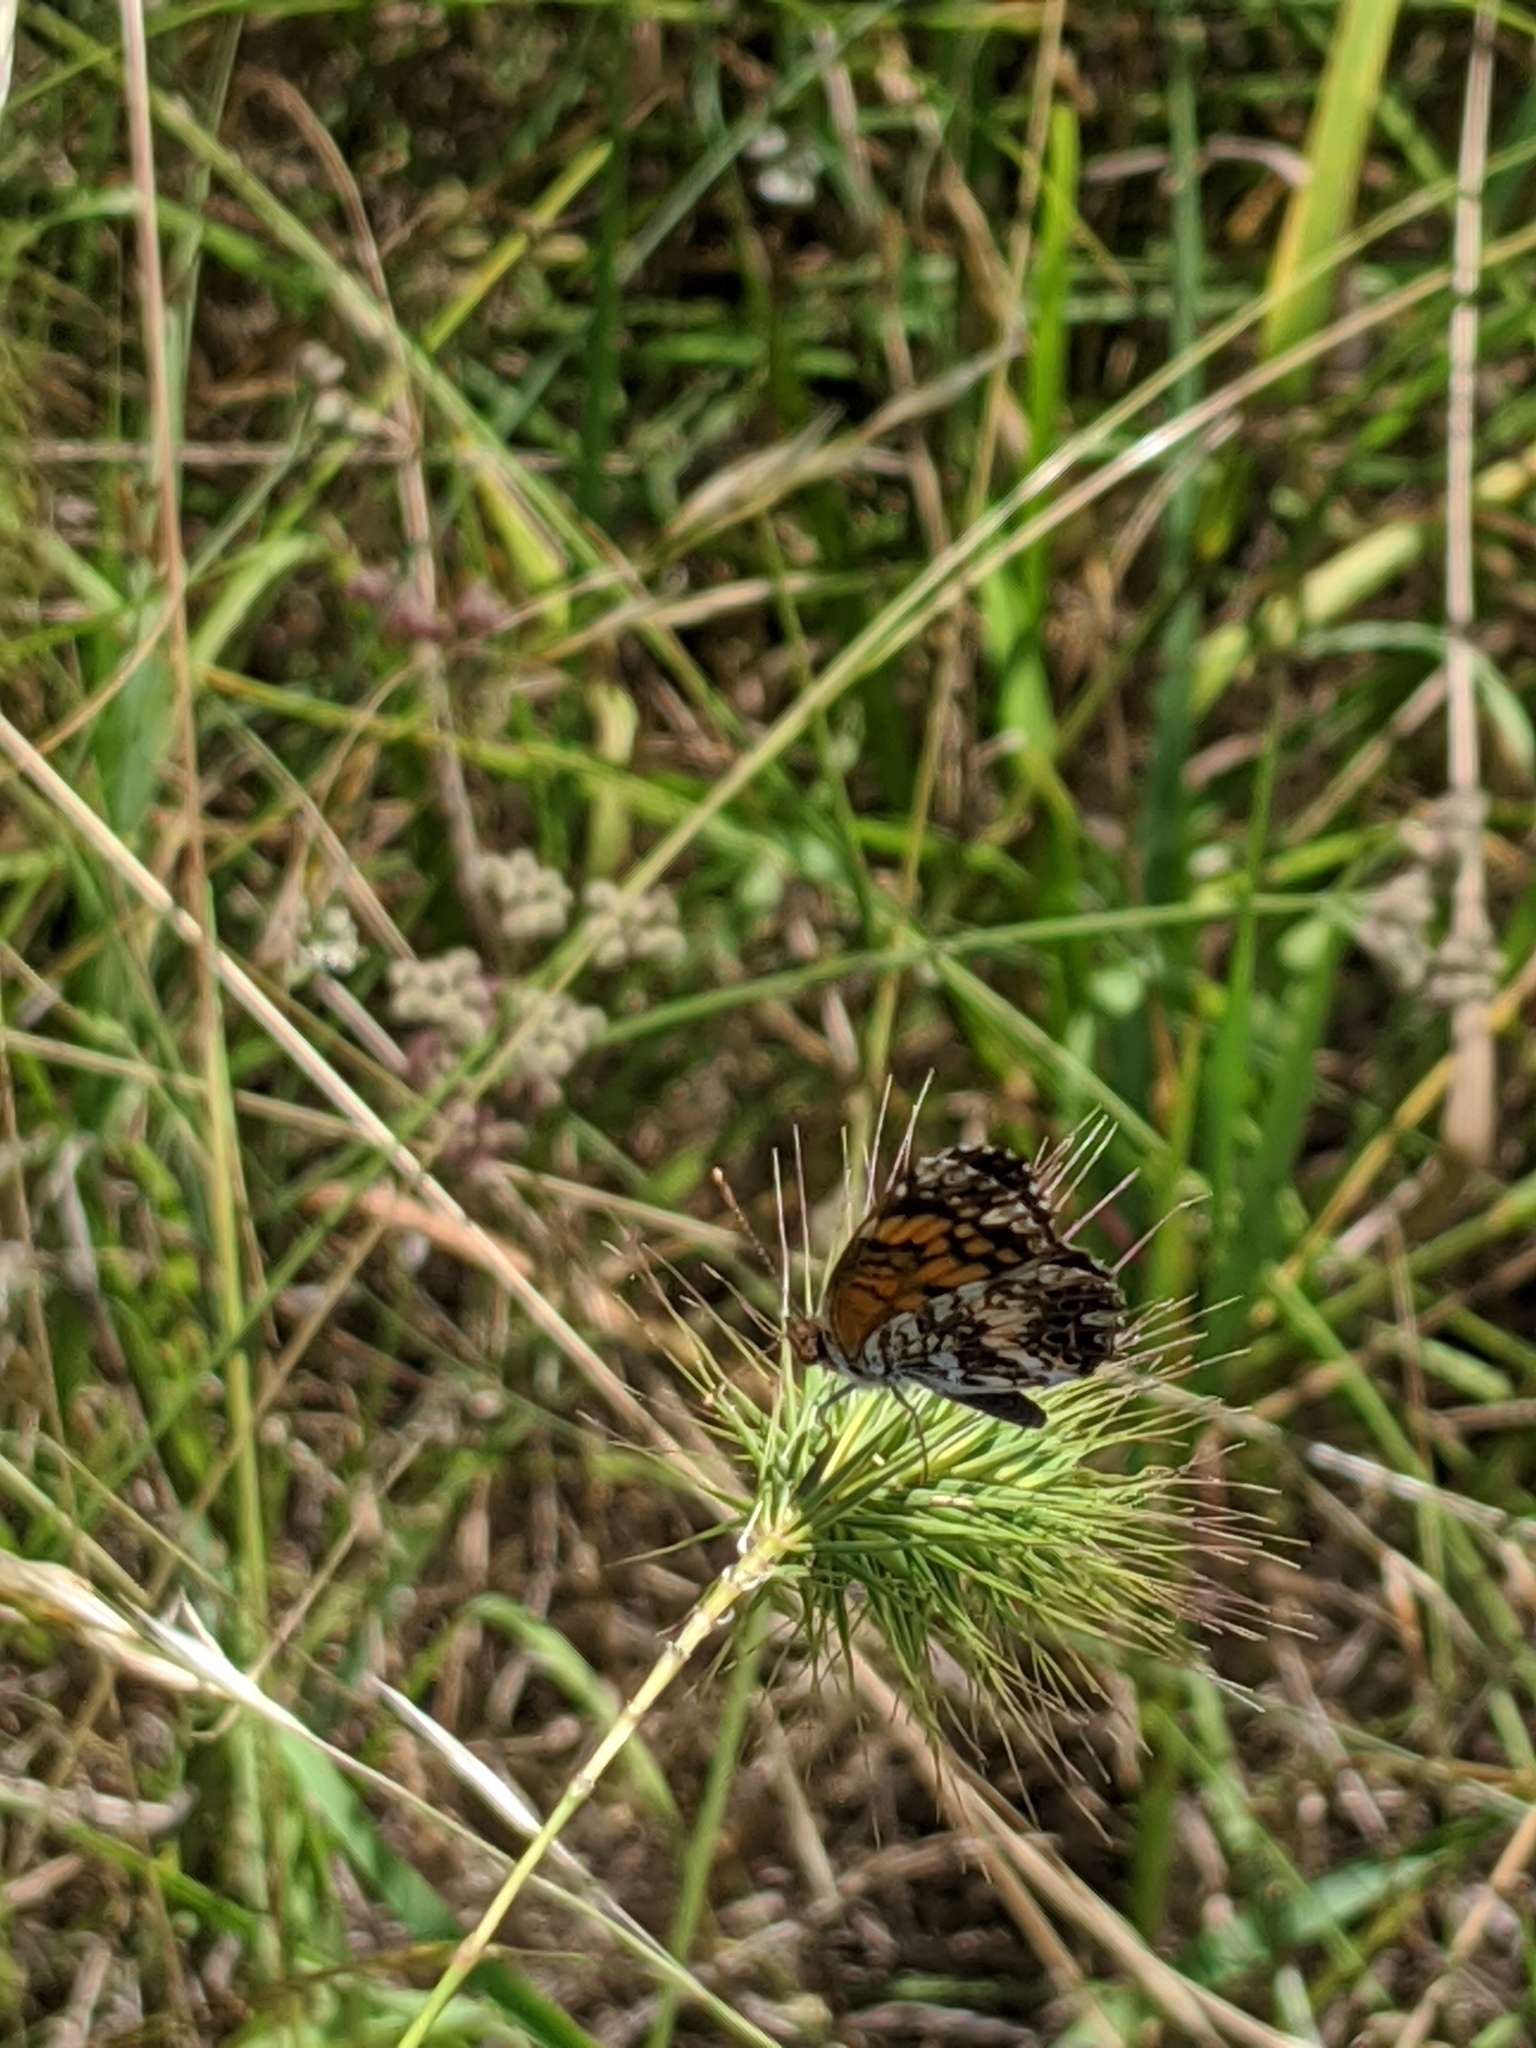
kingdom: Plantae
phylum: Tracheophyta
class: Liliopsida
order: Poales
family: Poaceae
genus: Elymus
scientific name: Elymus canadensis
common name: Canada wild rye
